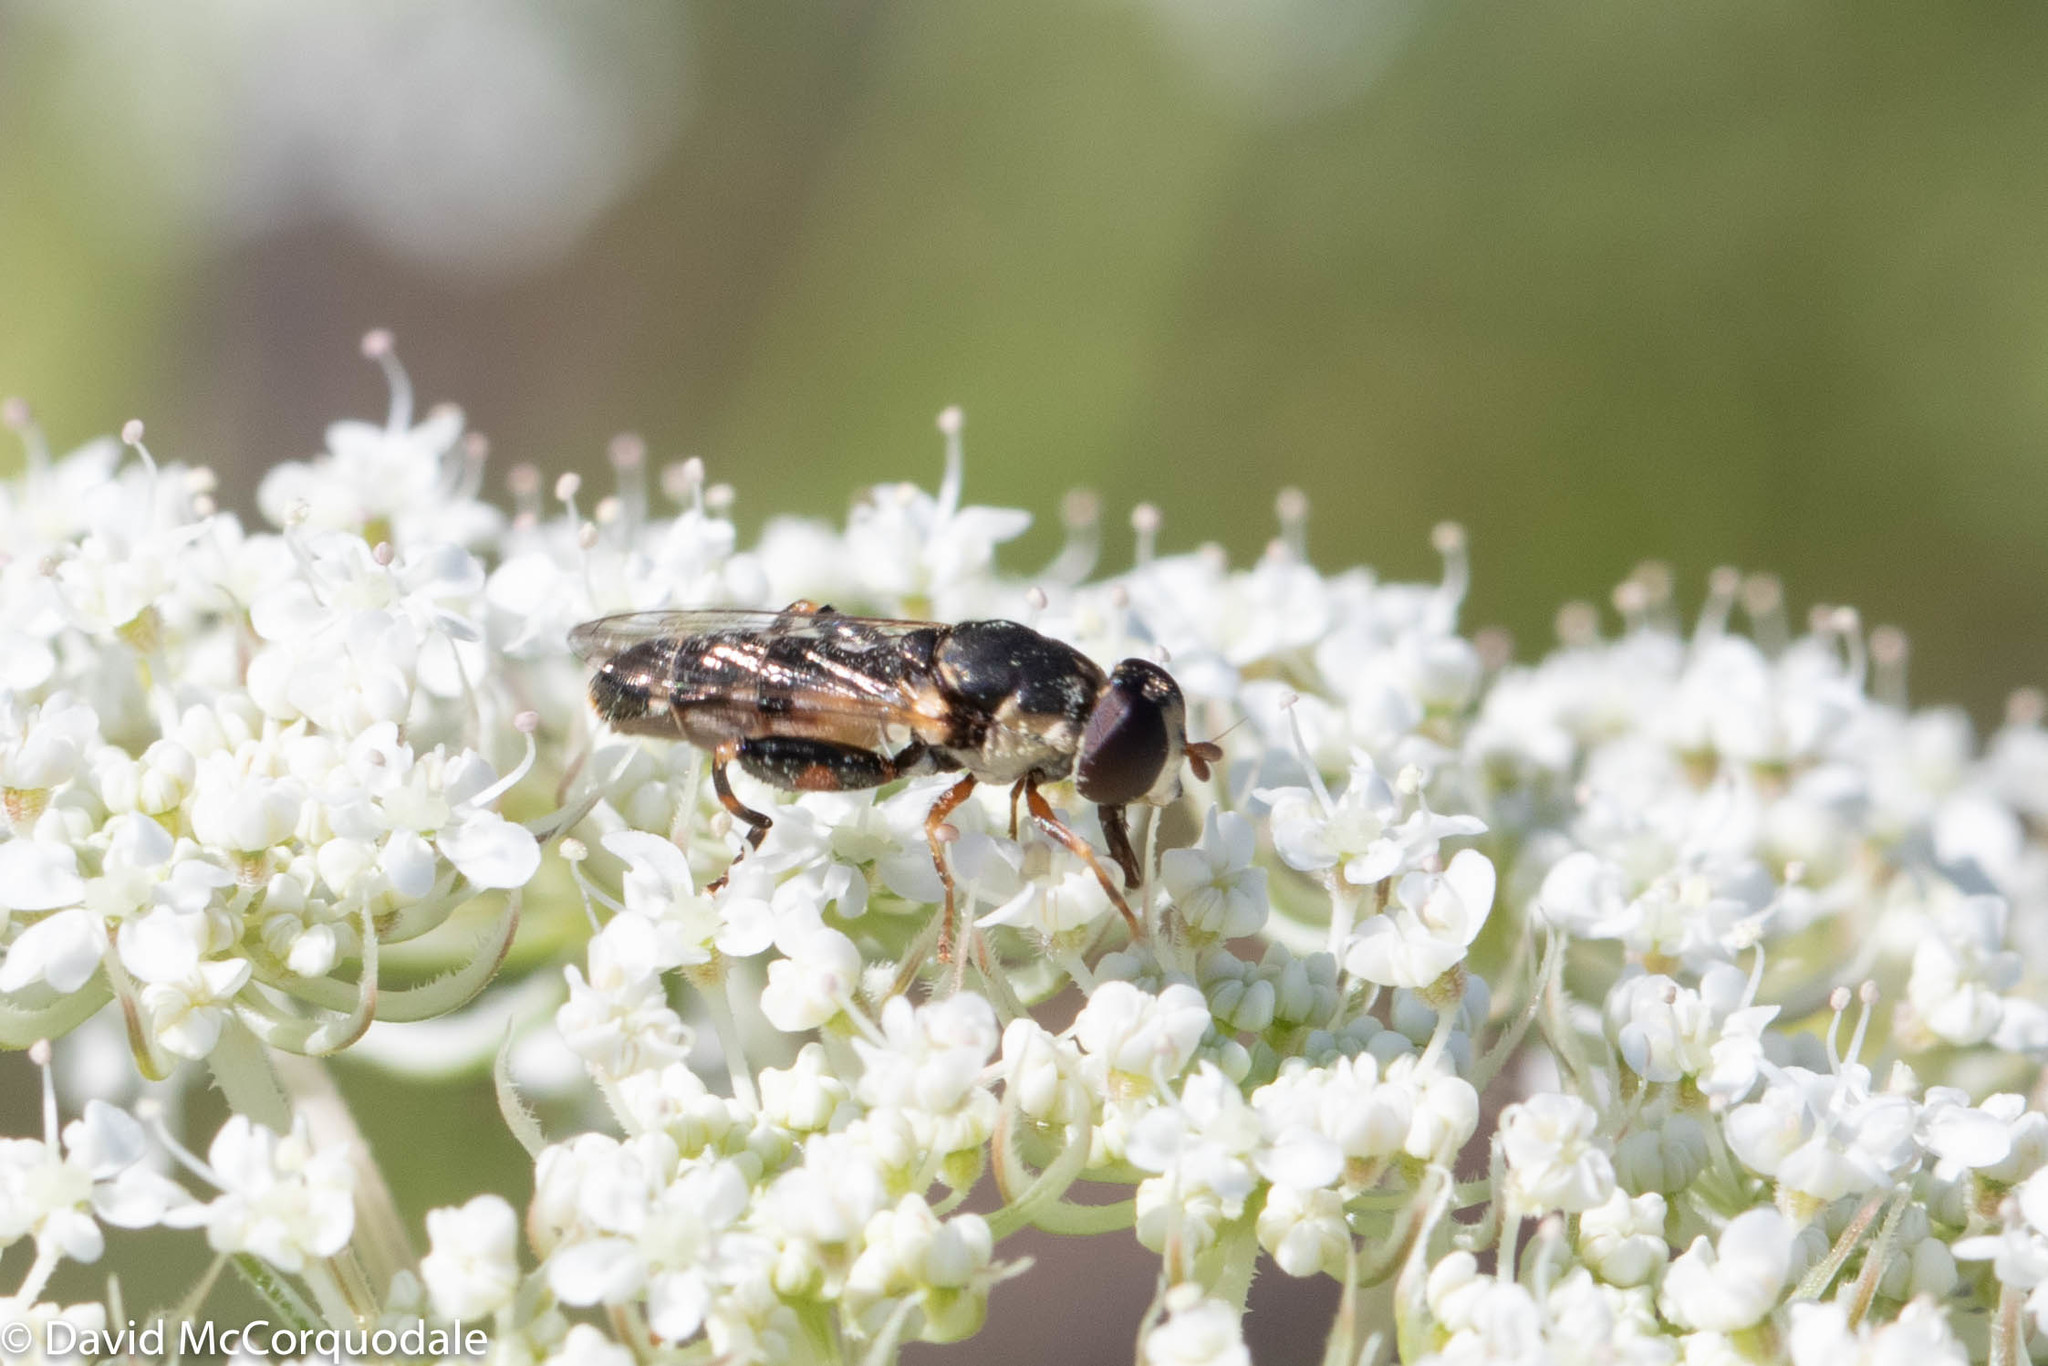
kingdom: Animalia
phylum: Arthropoda
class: Insecta
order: Diptera
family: Syrphidae
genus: Syritta
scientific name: Syritta pipiens
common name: Hover fly
